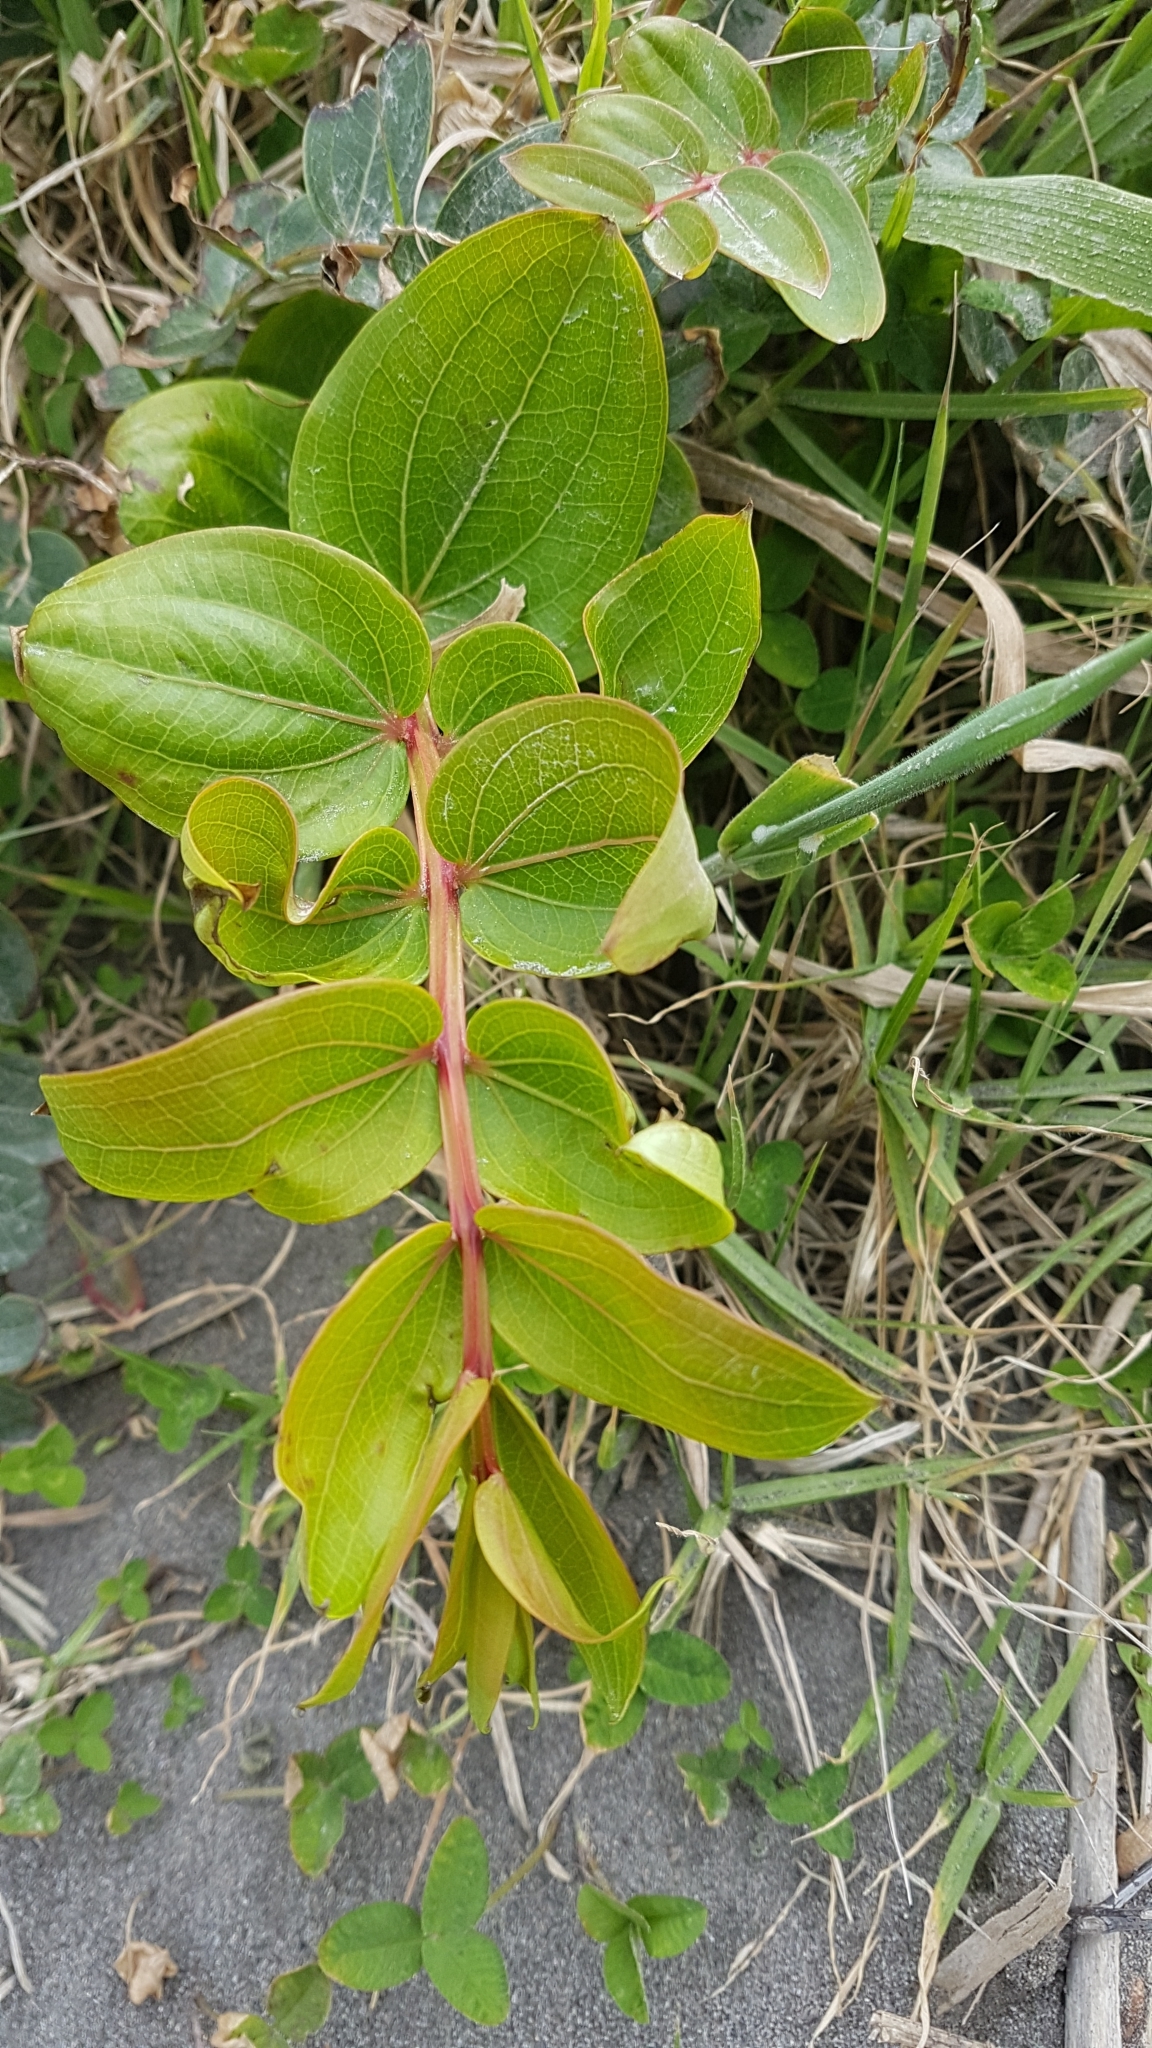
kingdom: Plantae
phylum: Tracheophyta
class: Magnoliopsida
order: Cucurbitales
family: Coriariaceae
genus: Coriaria
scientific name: Coriaria arborea
